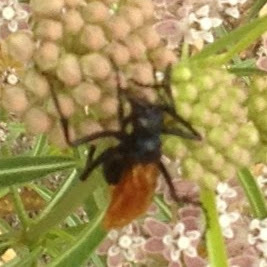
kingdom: Animalia
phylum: Arthropoda
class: Insecta
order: Hymenoptera
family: Pompilidae
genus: Pepsis
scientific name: Pepsis thisbe
